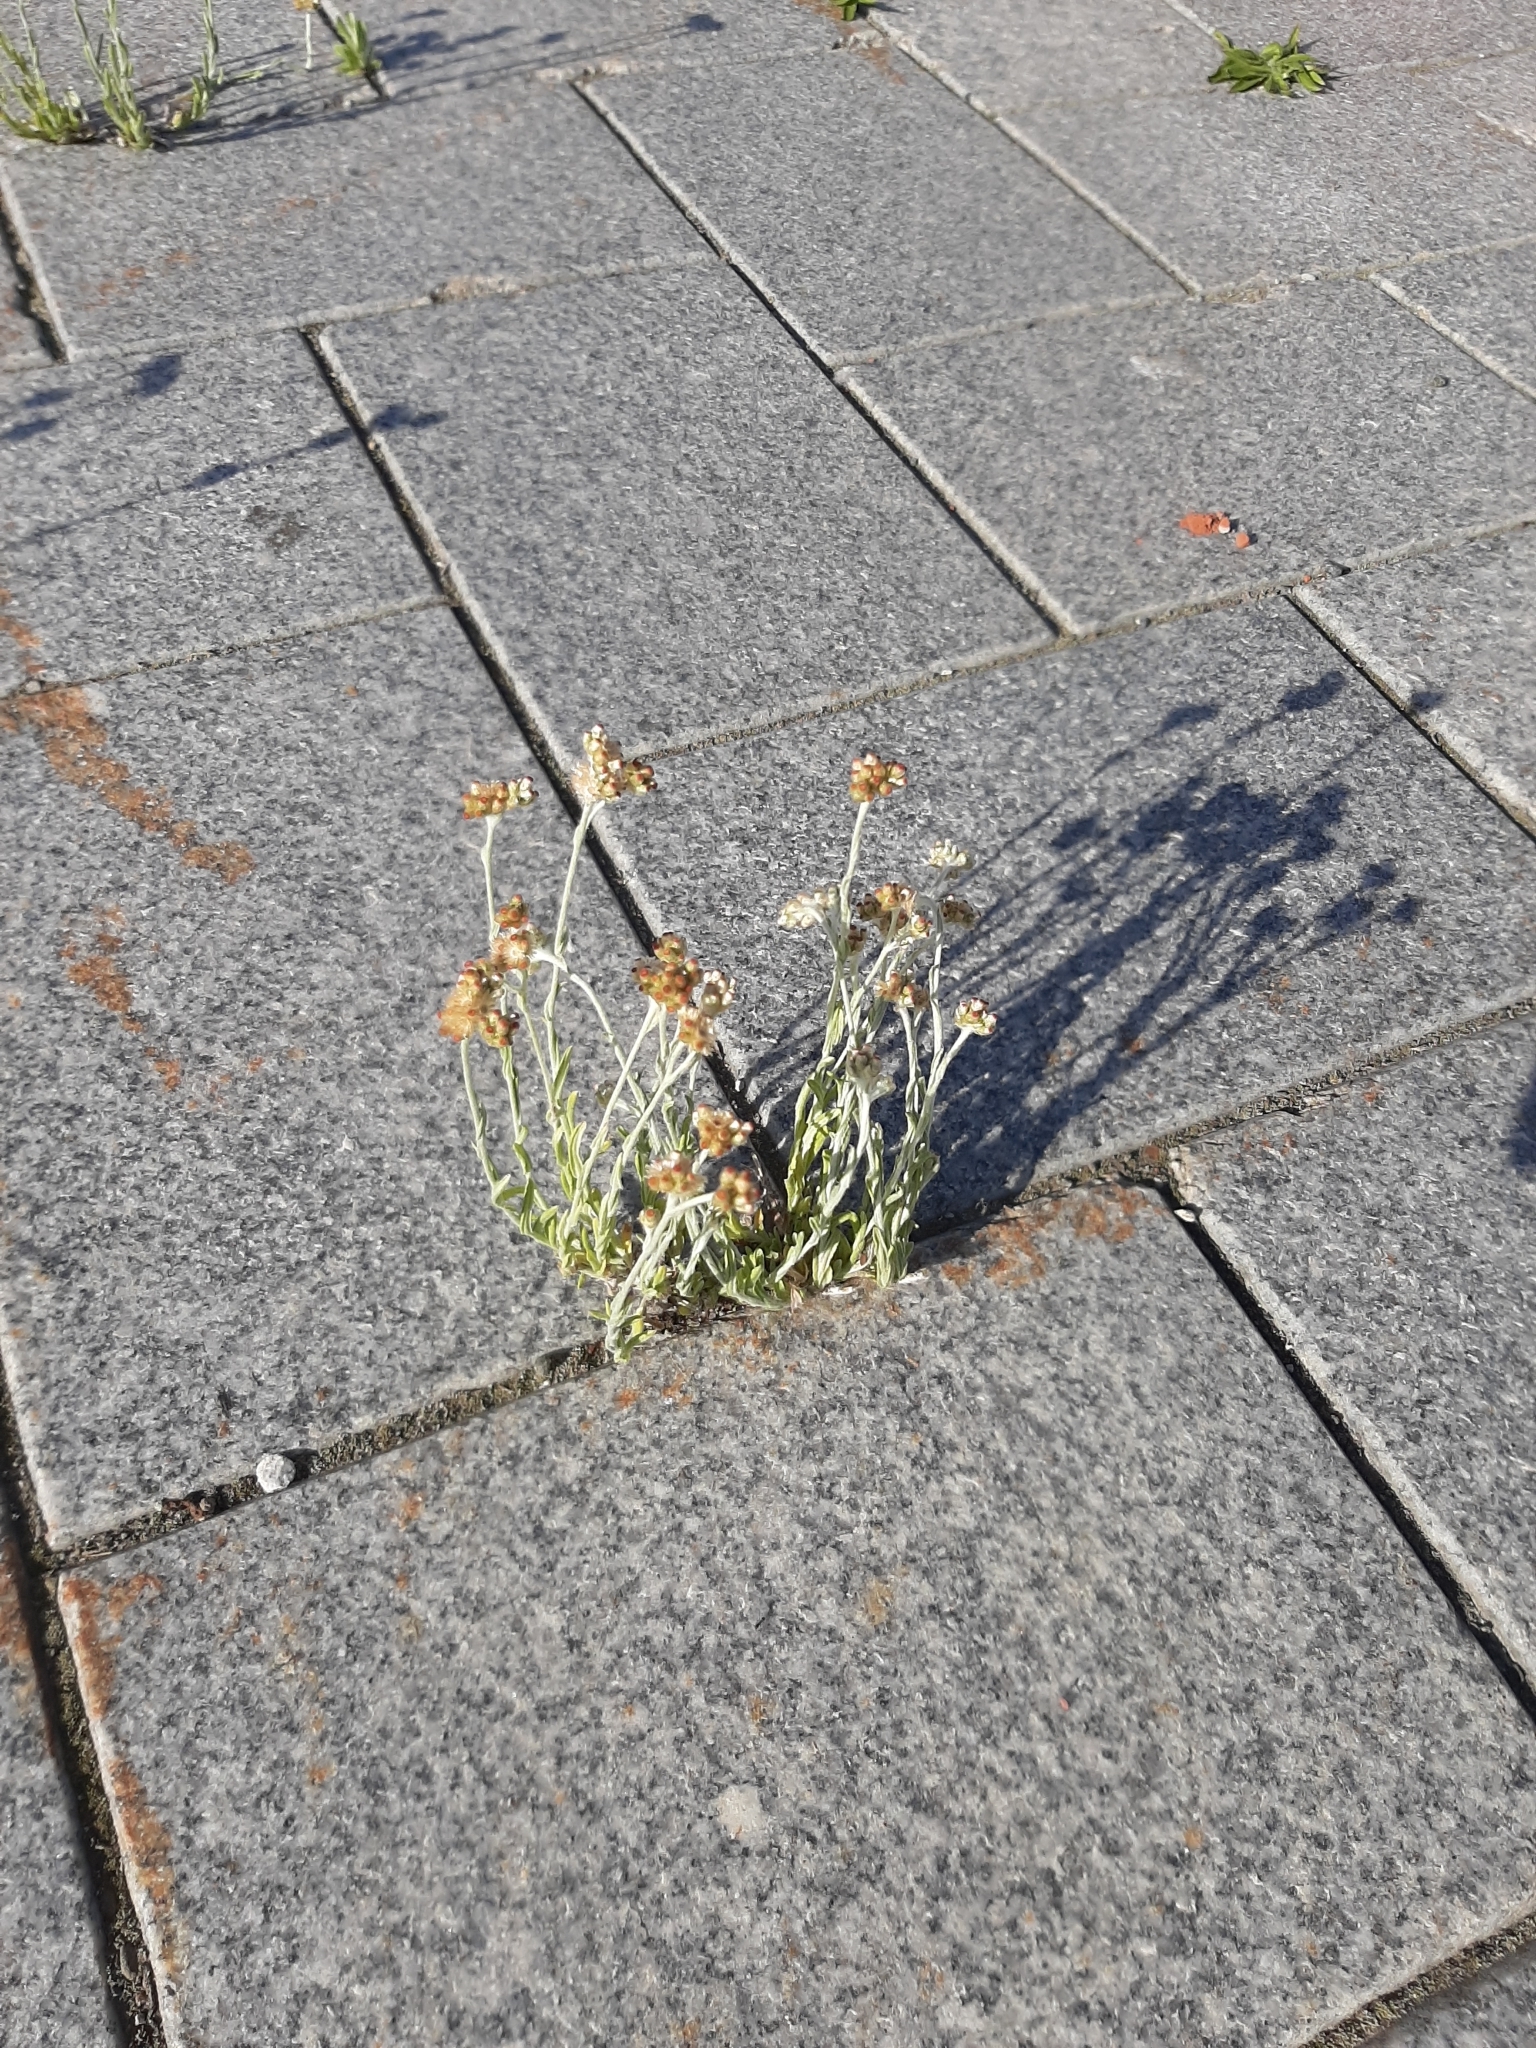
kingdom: Plantae
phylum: Tracheophyta
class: Magnoliopsida
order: Asterales
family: Asteraceae
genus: Helichrysum
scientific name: Helichrysum luteoalbum
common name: Daisy
